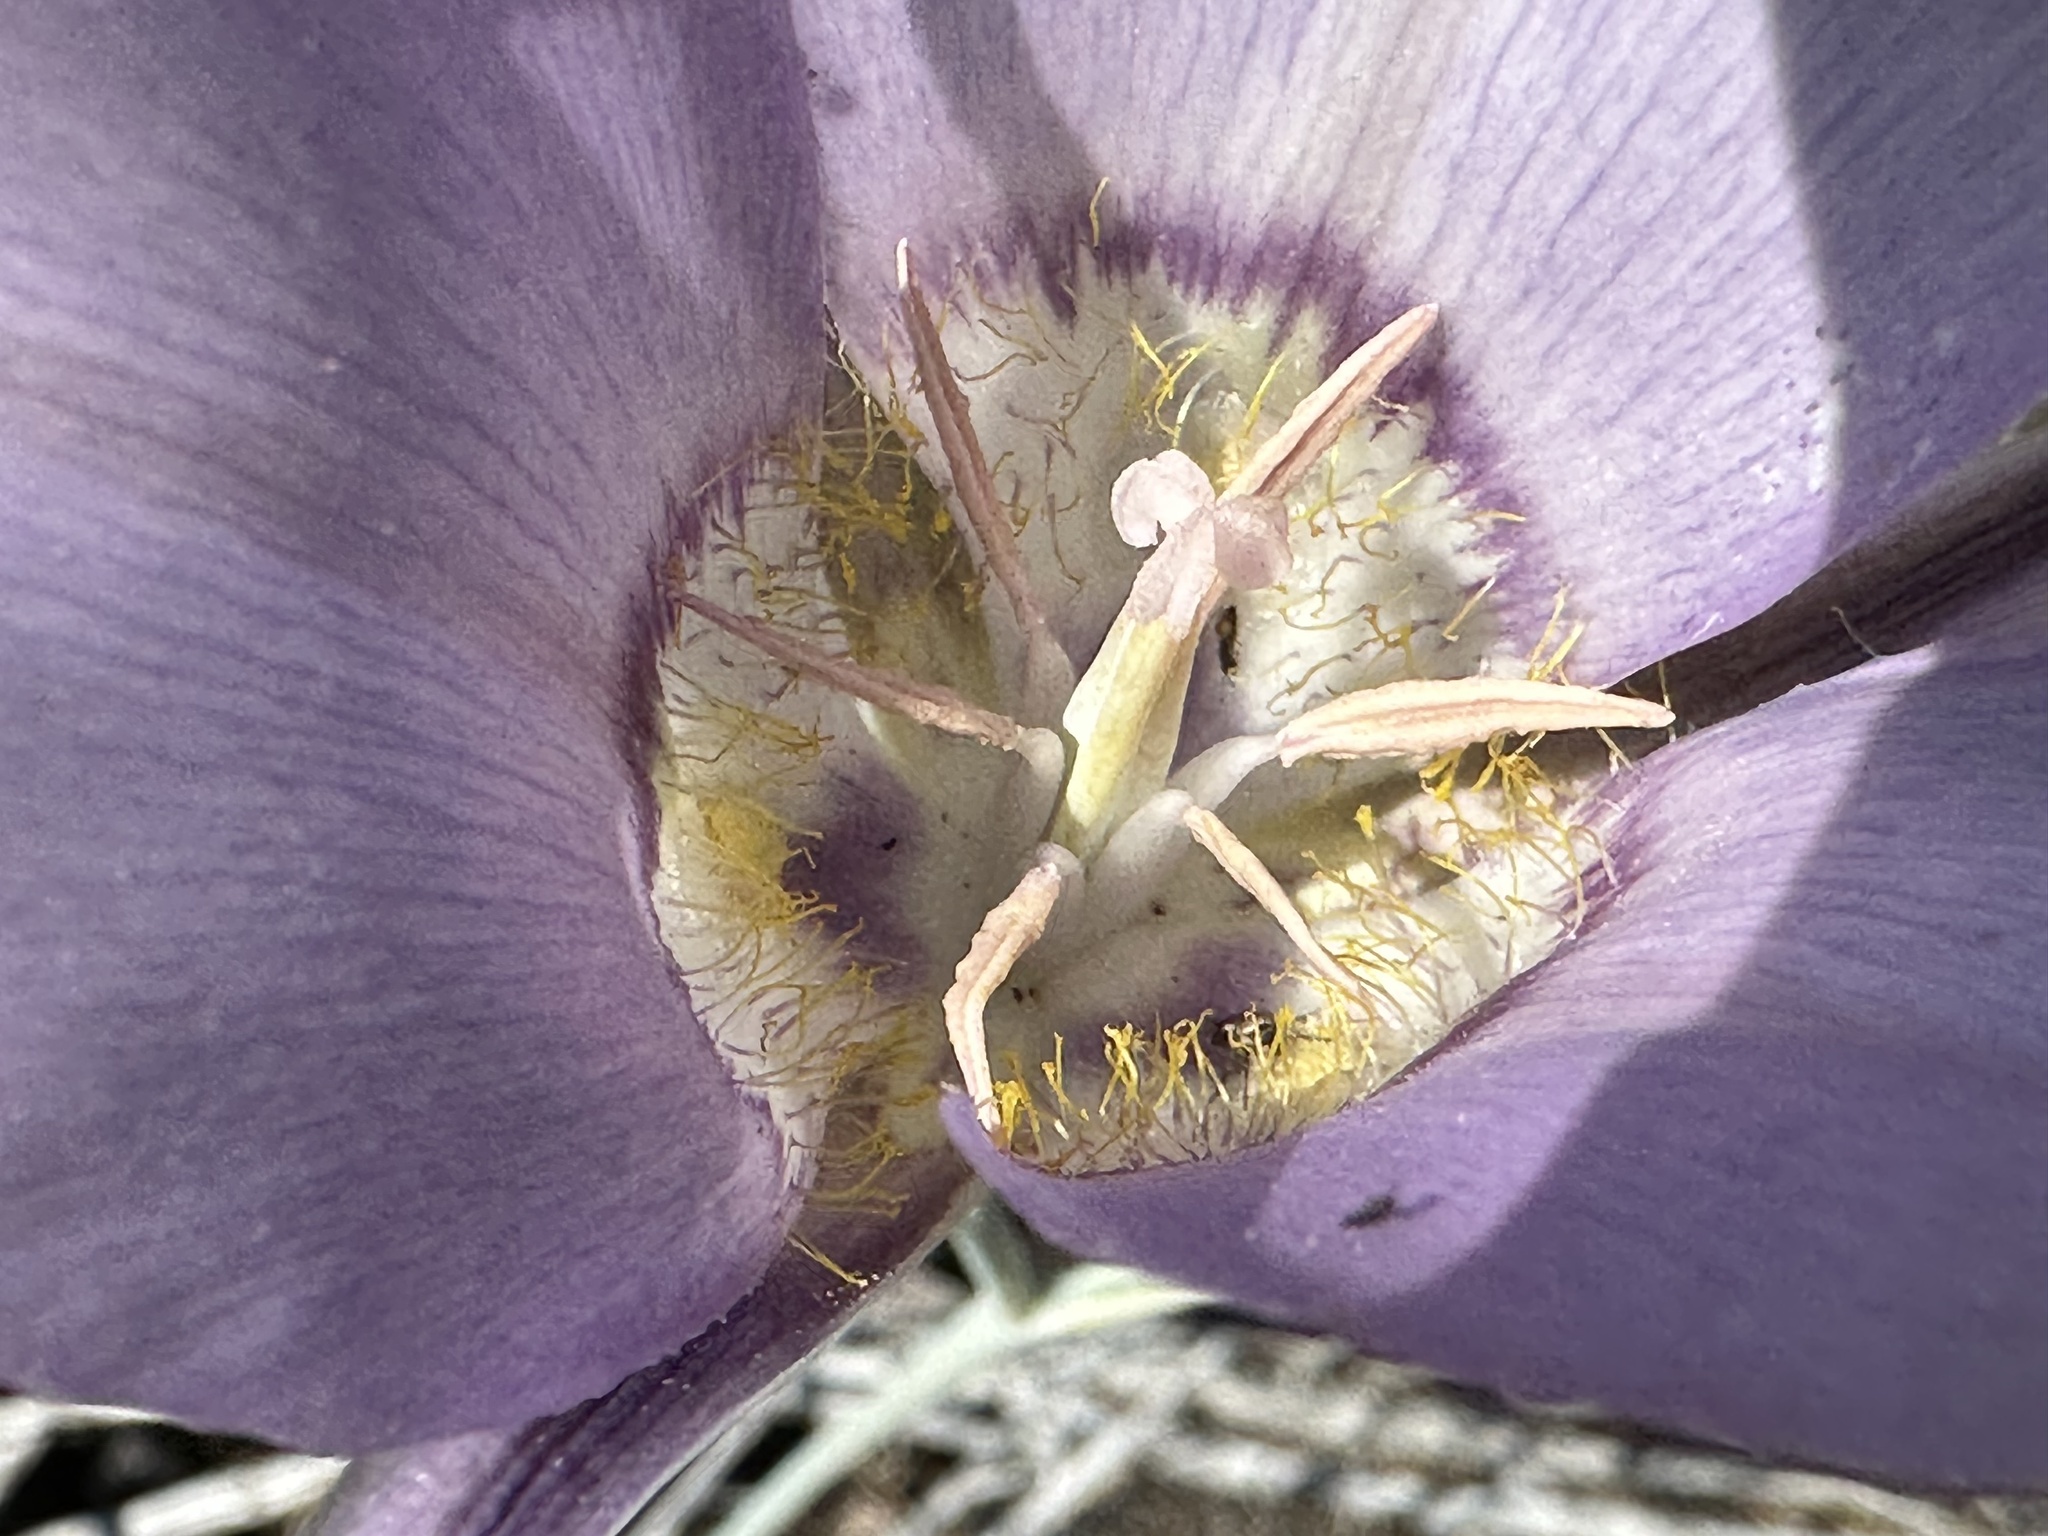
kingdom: Plantae
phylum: Tracheophyta
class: Liliopsida
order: Liliales
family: Liliaceae
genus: Calochortus
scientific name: Calochortus macrocarpus
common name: Green-band mariposa lily
